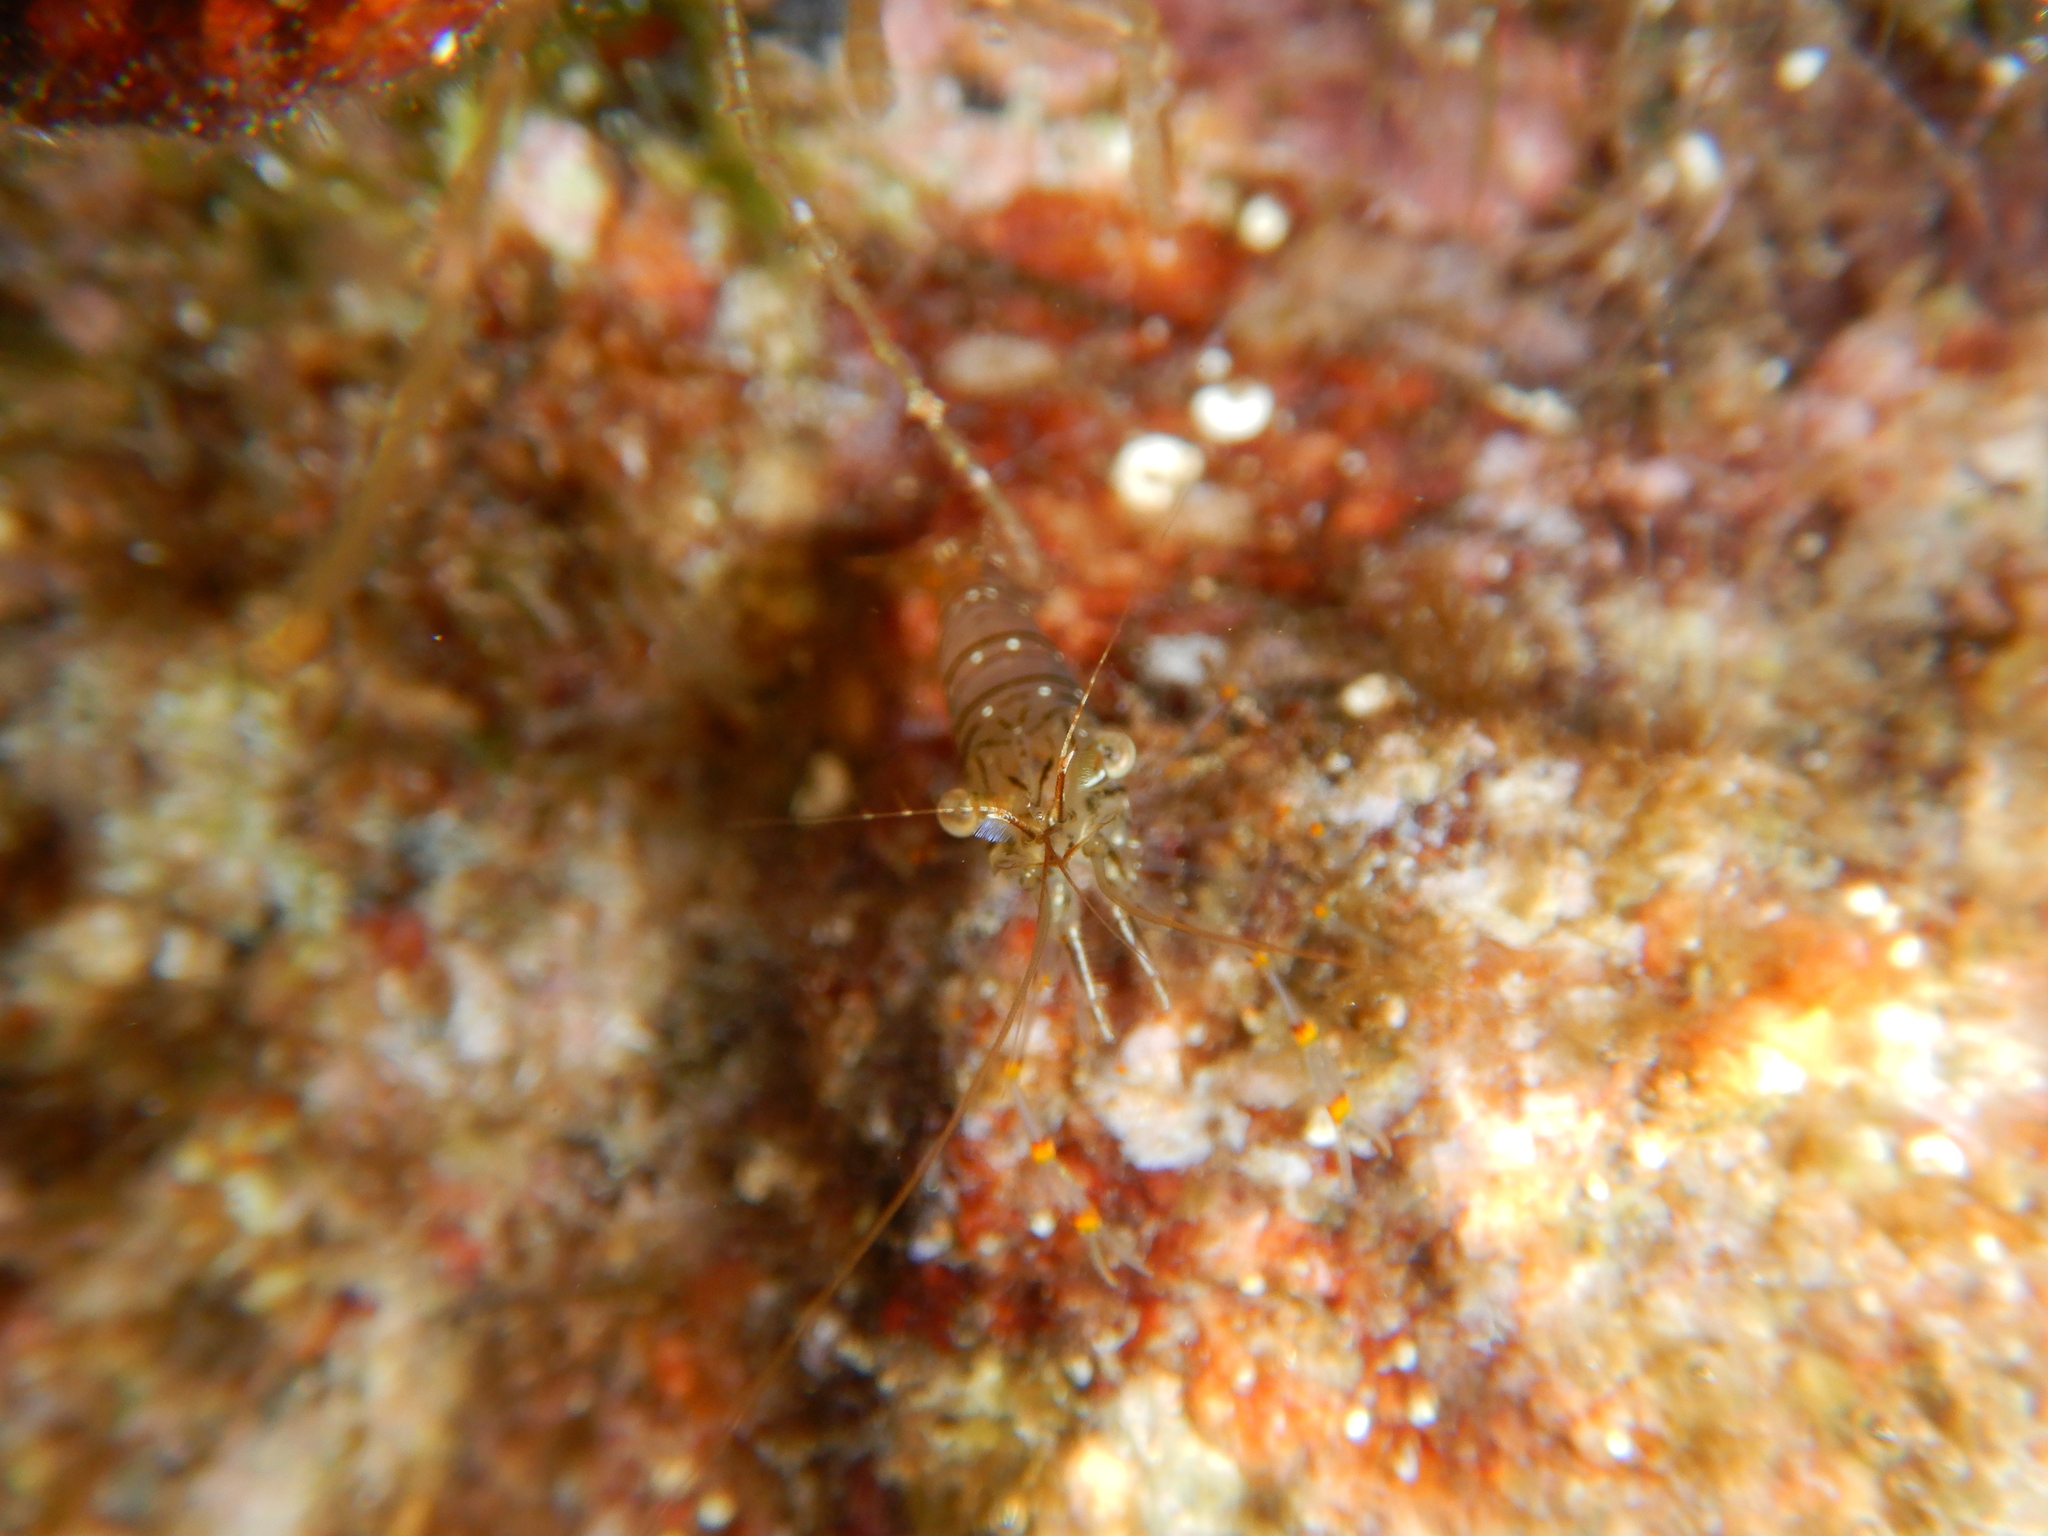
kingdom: Animalia
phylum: Arthropoda
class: Malacostraca
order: Decapoda
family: Palaemonidae
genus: Palaemon
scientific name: Palaemon serratus
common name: Common prawn
